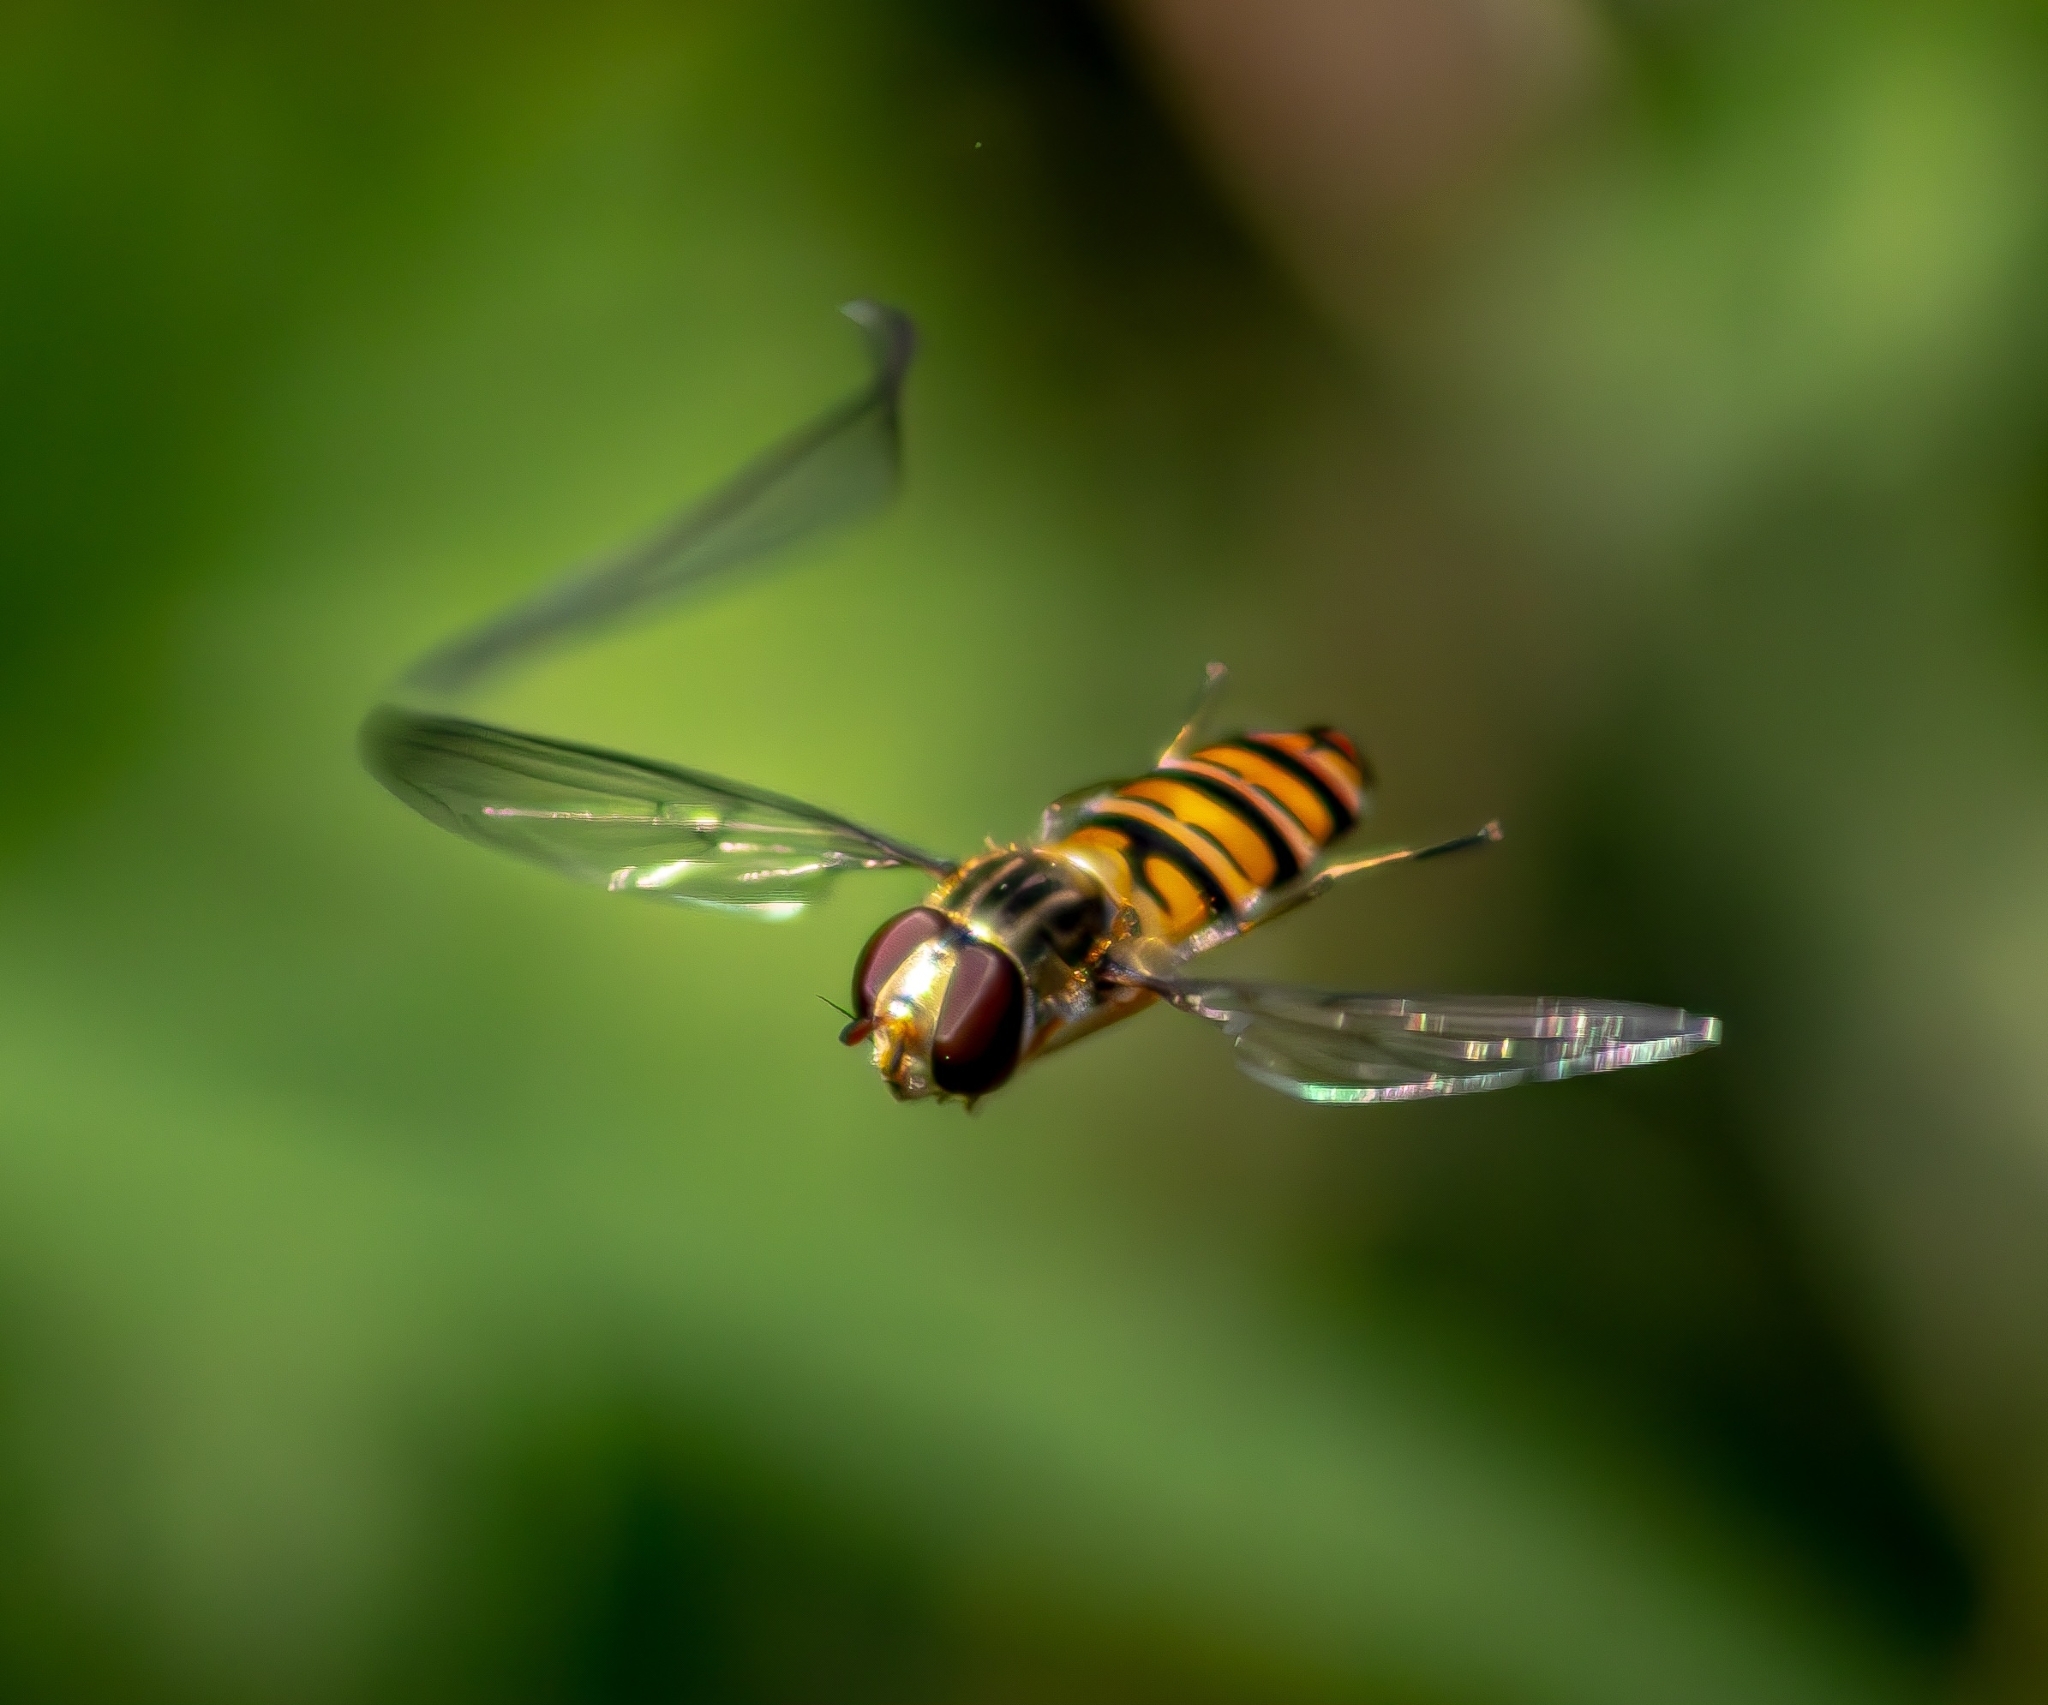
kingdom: Animalia
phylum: Arthropoda
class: Insecta
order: Diptera
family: Syrphidae
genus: Episyrphus
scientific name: Episyrphus balteatus
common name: Marmalade hoverfly
